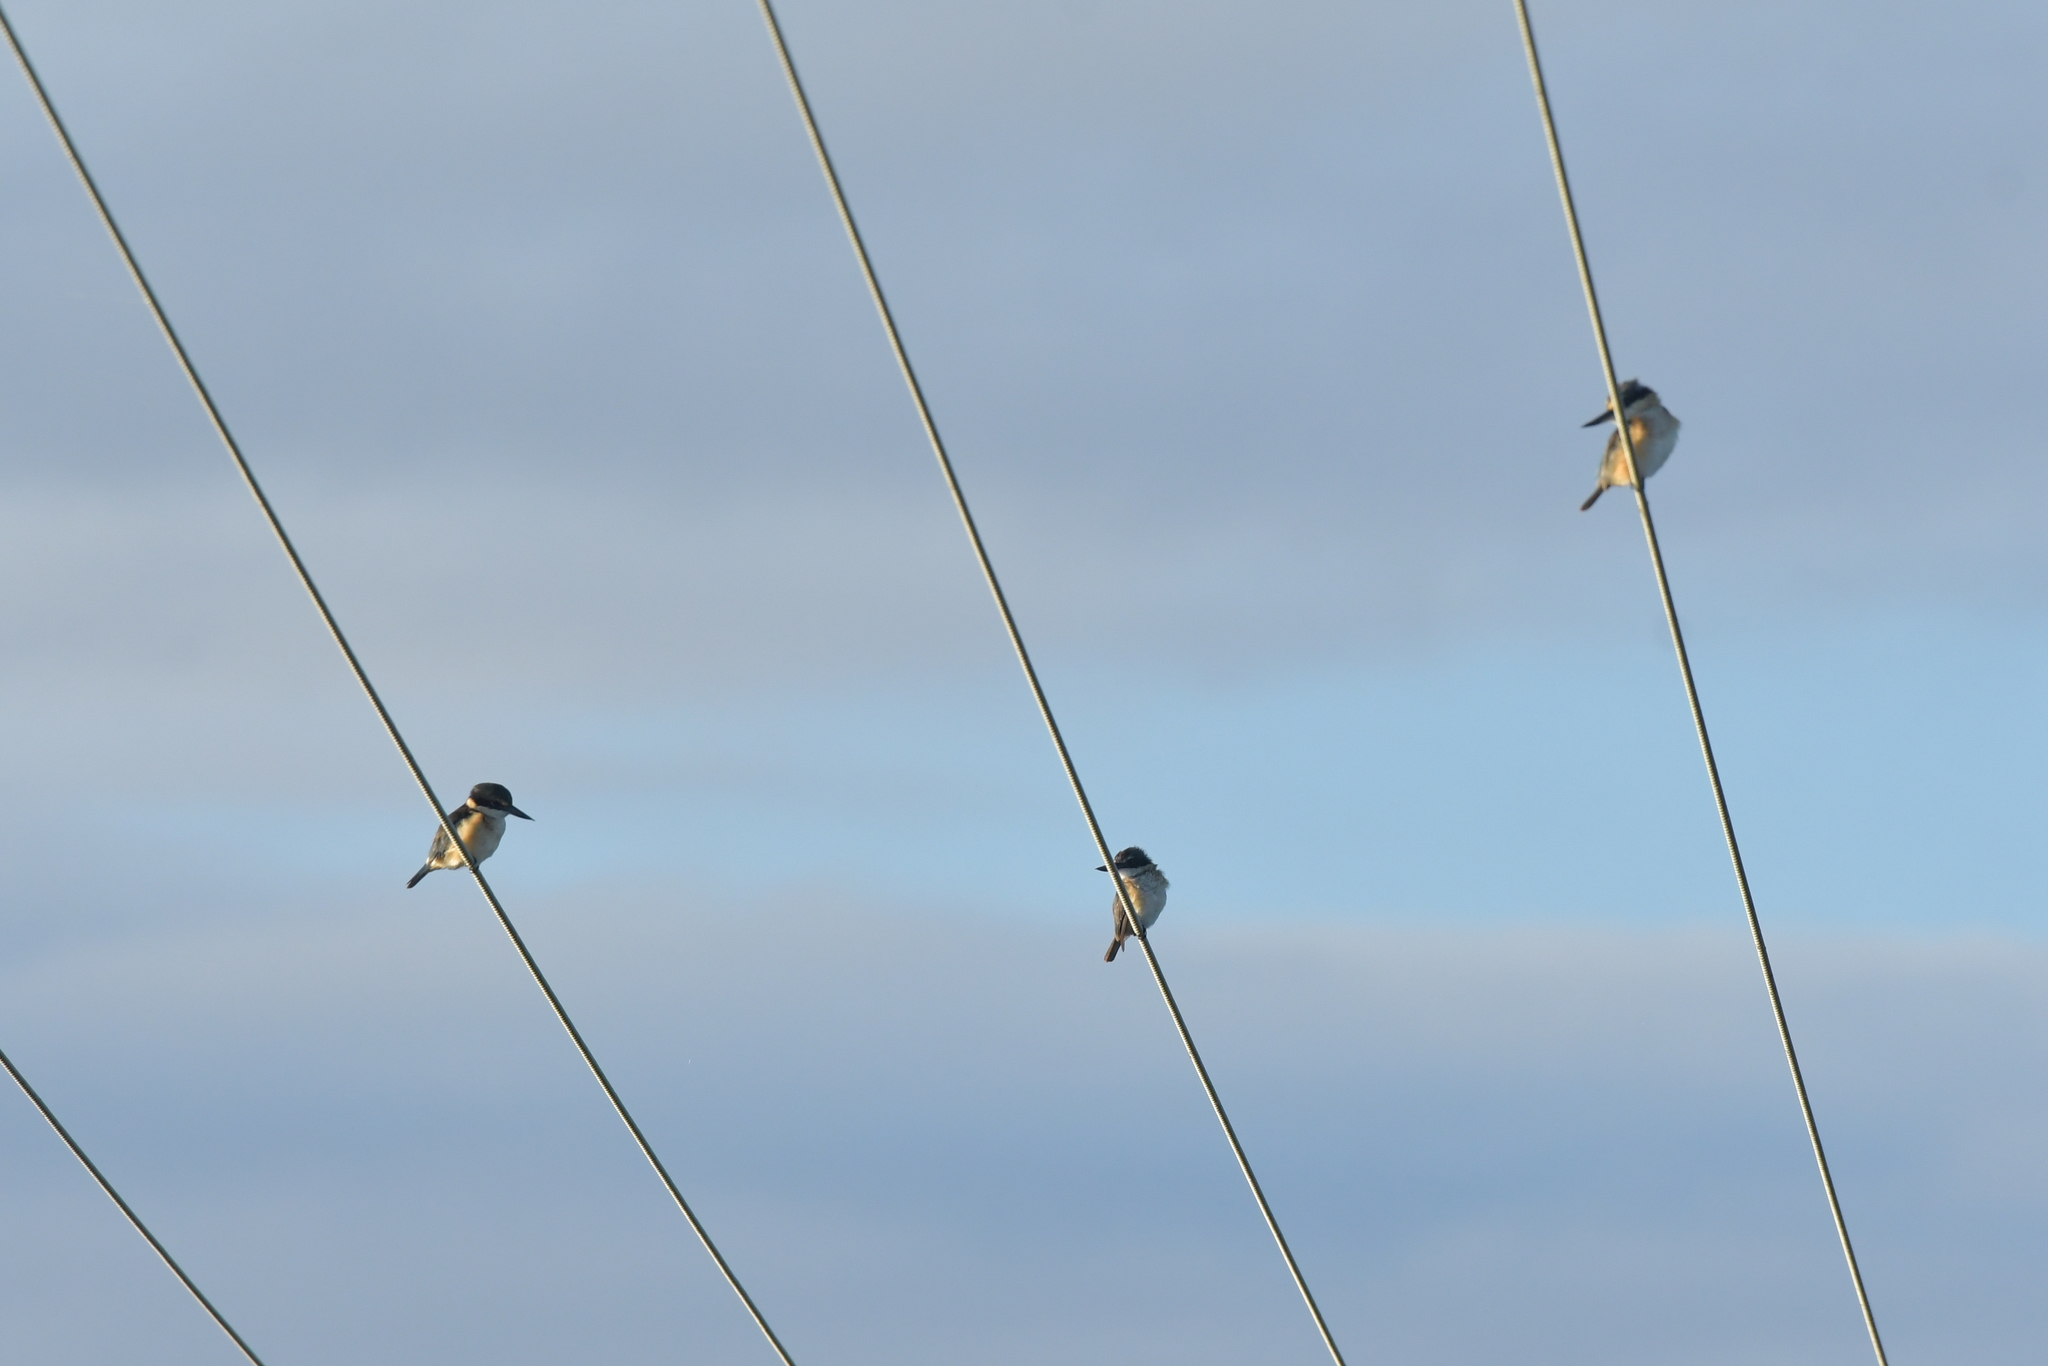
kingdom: Animalia
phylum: Chordata
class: Aves
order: Coraciiformes
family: Alcedinidae
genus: Todiramphus
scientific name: Todiramphus sanctus
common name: Sacred kingfisher
